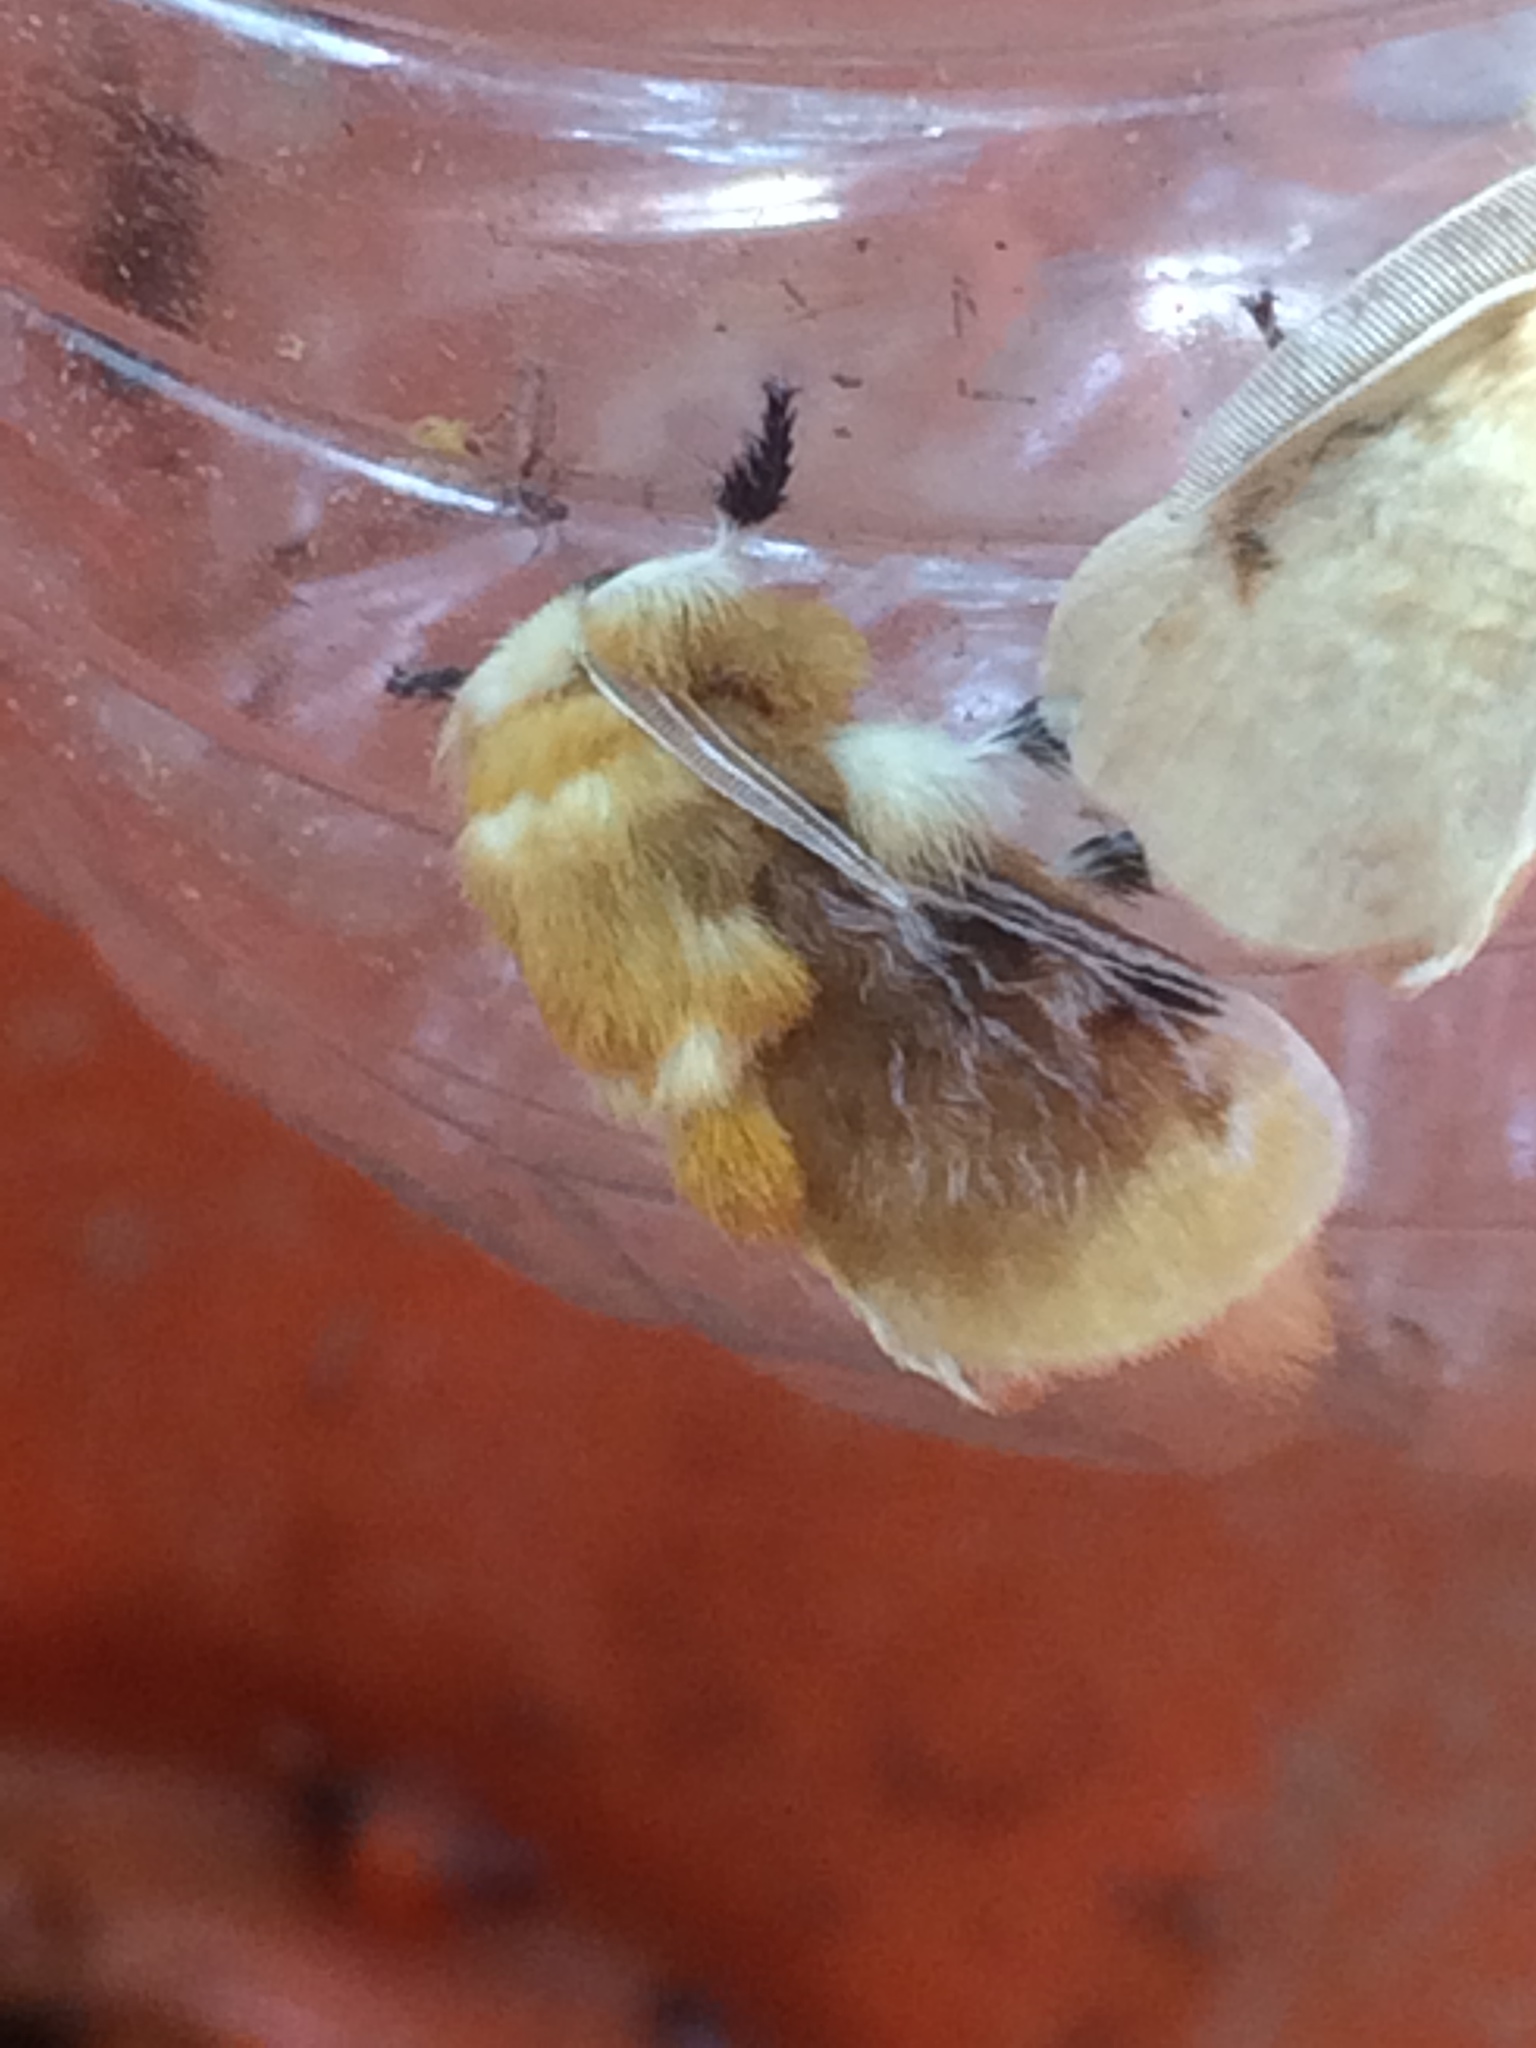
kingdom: Animalia
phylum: Arthropoda
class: Insecta
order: Lepidoptera
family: Megalopygidae
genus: Megalopyge
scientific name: Megalopyge opercularis
